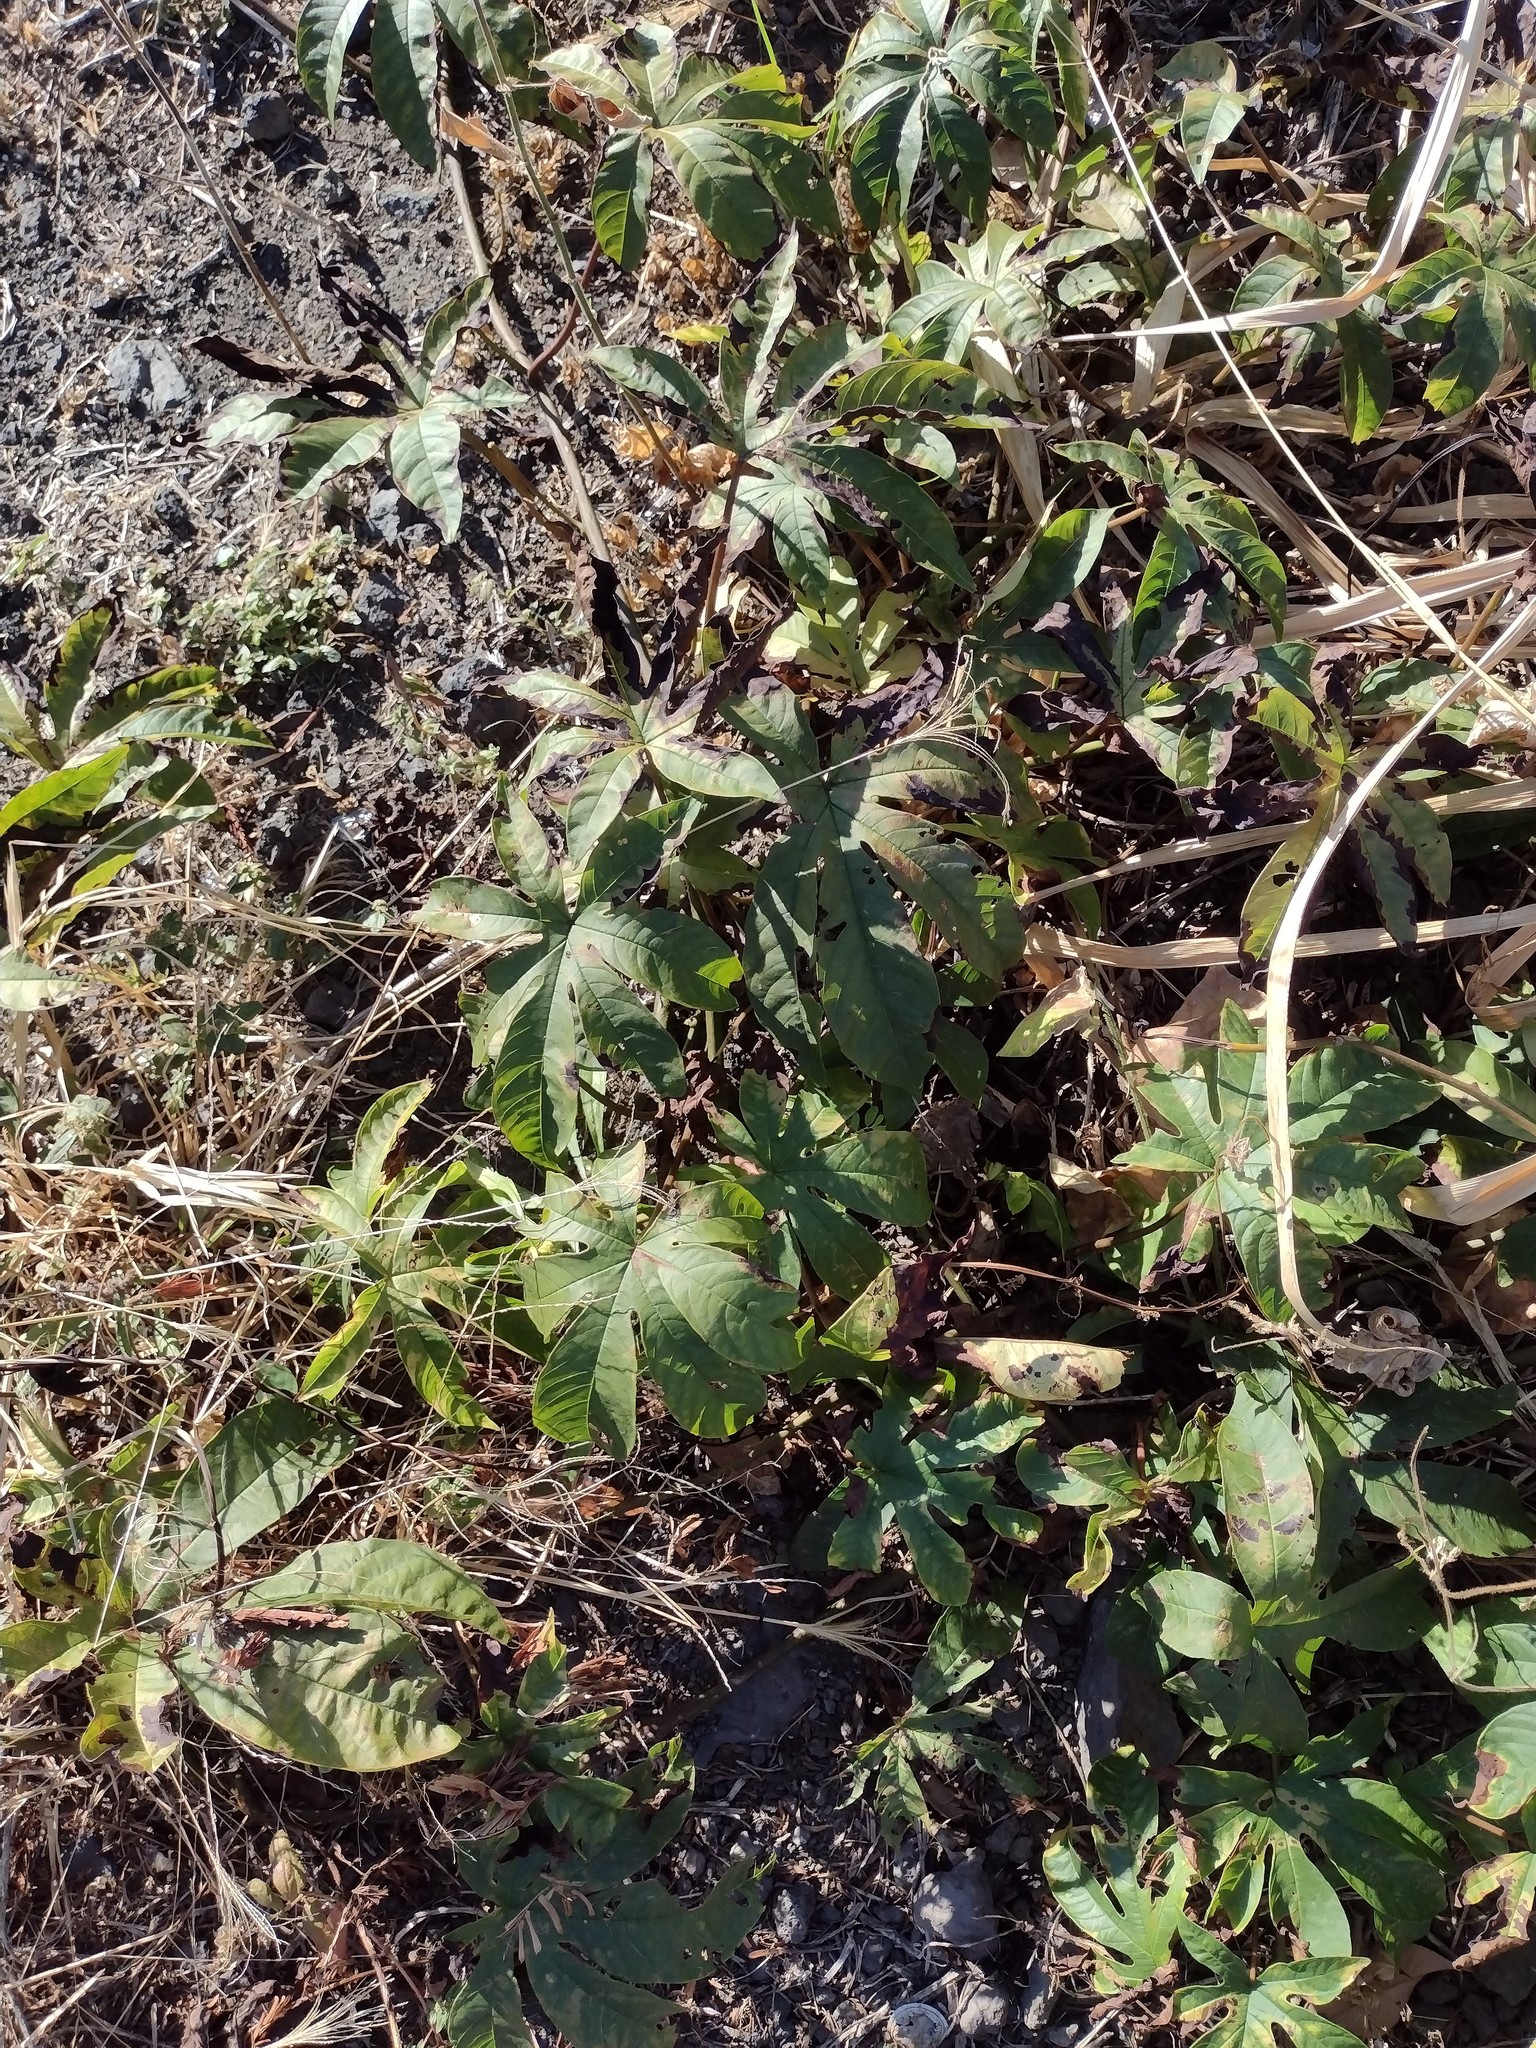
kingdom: Plantae
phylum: Tracheophyta
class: Magnoliopsida
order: Solanales
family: Convolvulaceae
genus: Distimake
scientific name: Distimake tuberosus
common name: Spanish arborvine
